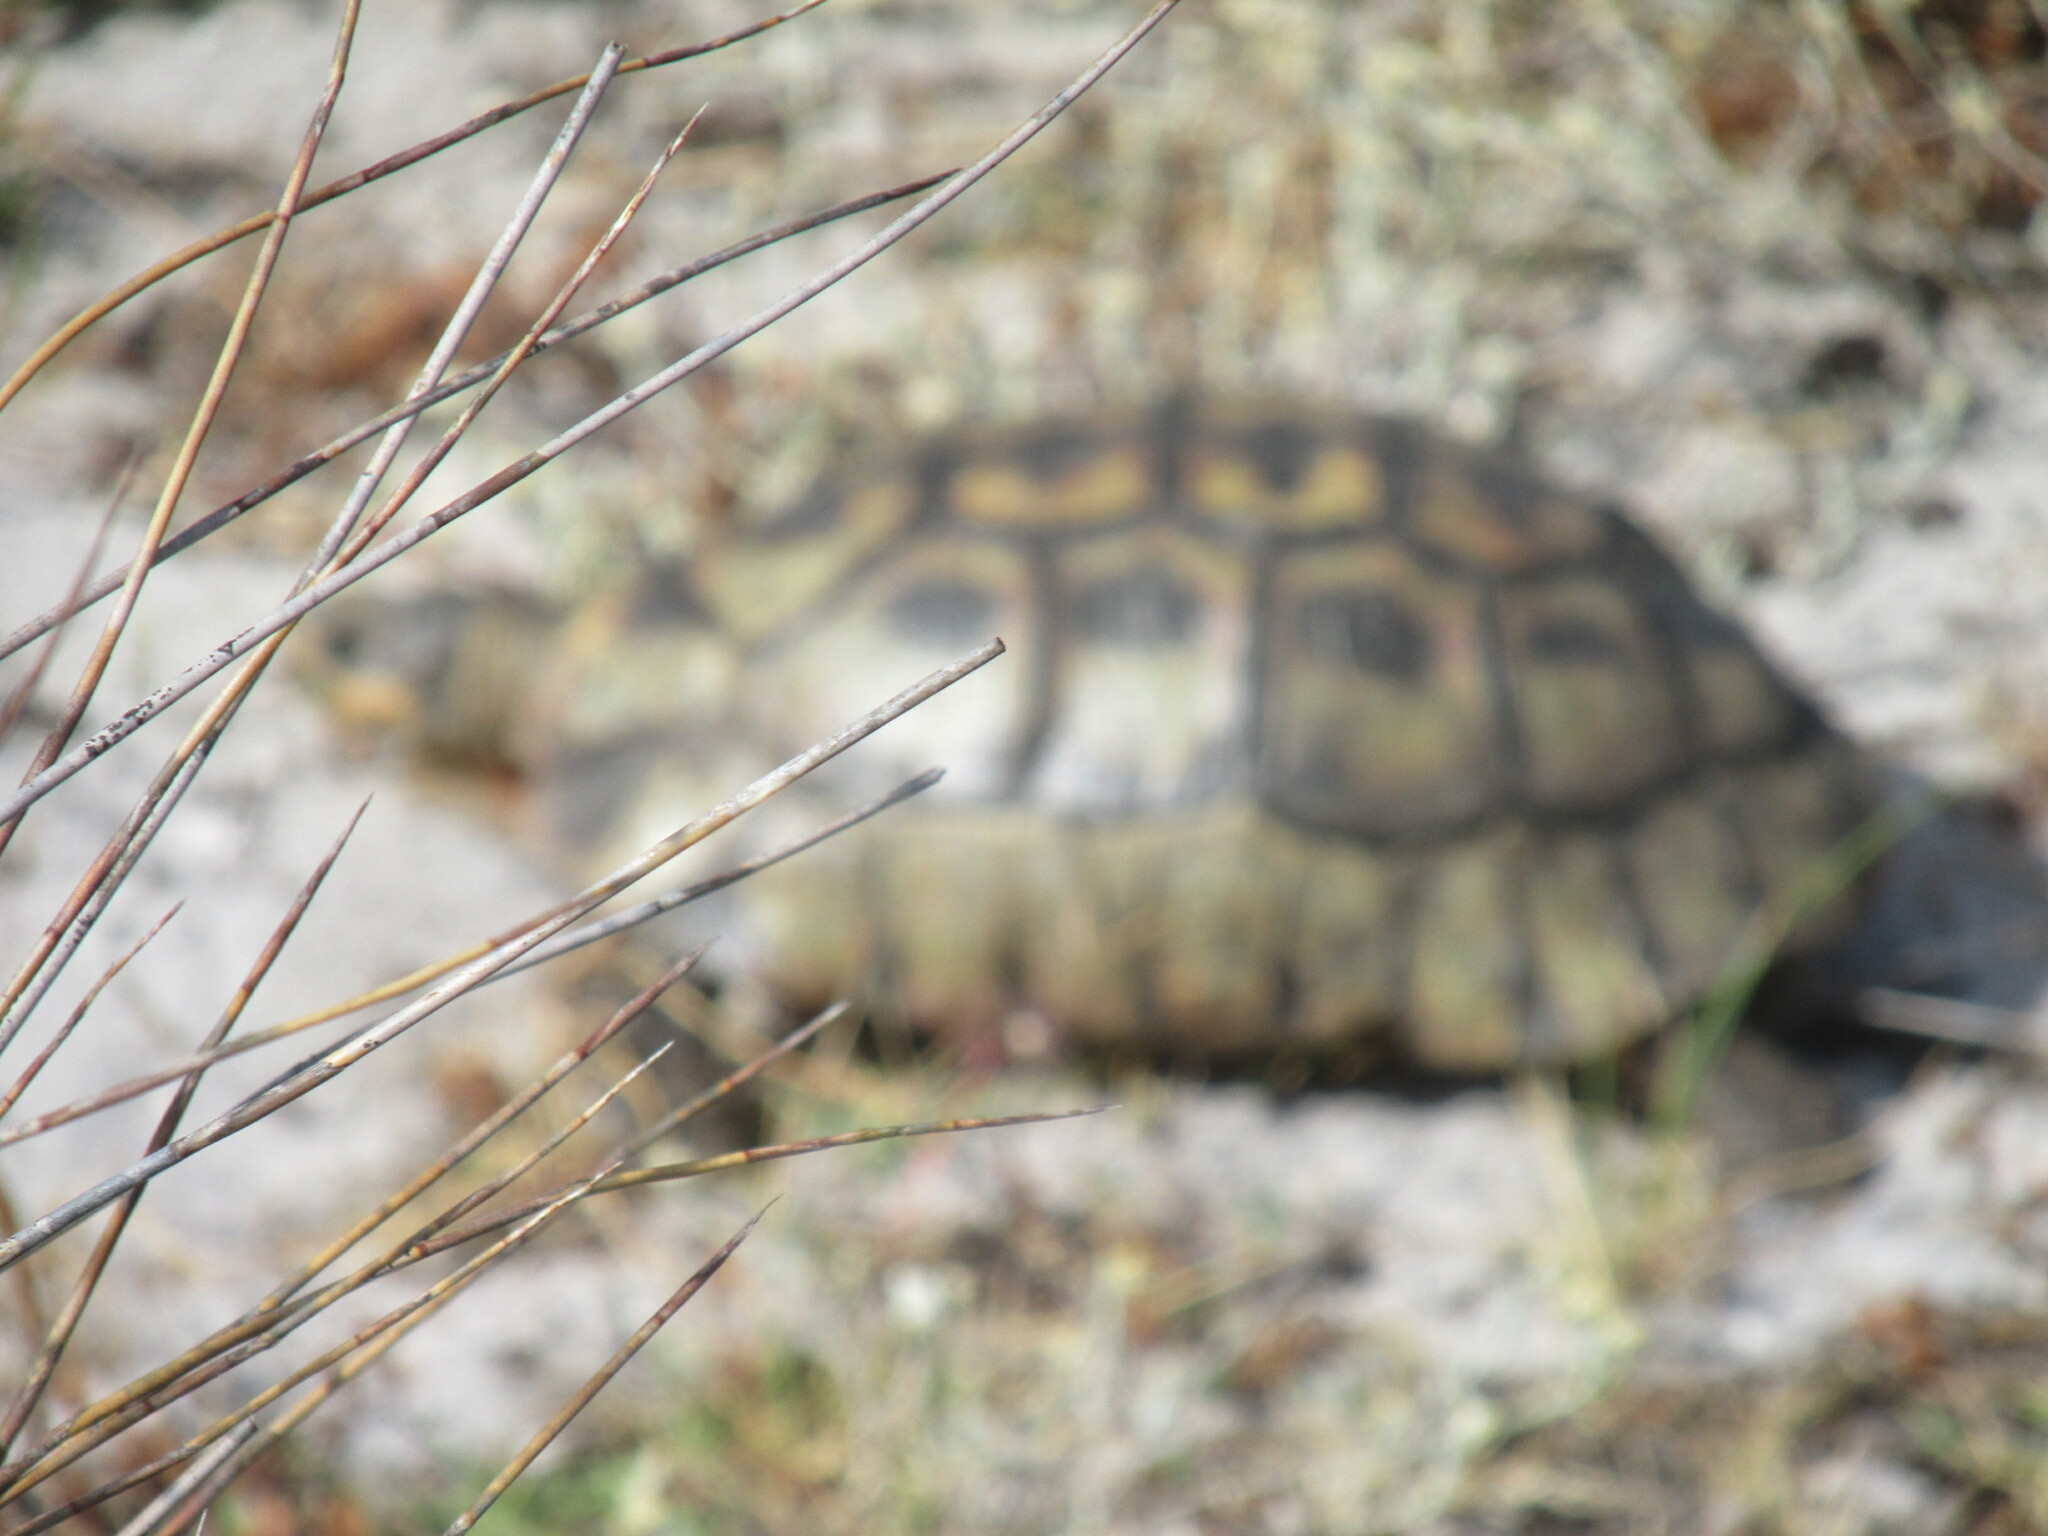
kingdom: Animalia
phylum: Chordata
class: Testudines
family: Testudinidae
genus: Chersina
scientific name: Chersina angulata
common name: South african bowsprit tortoise
